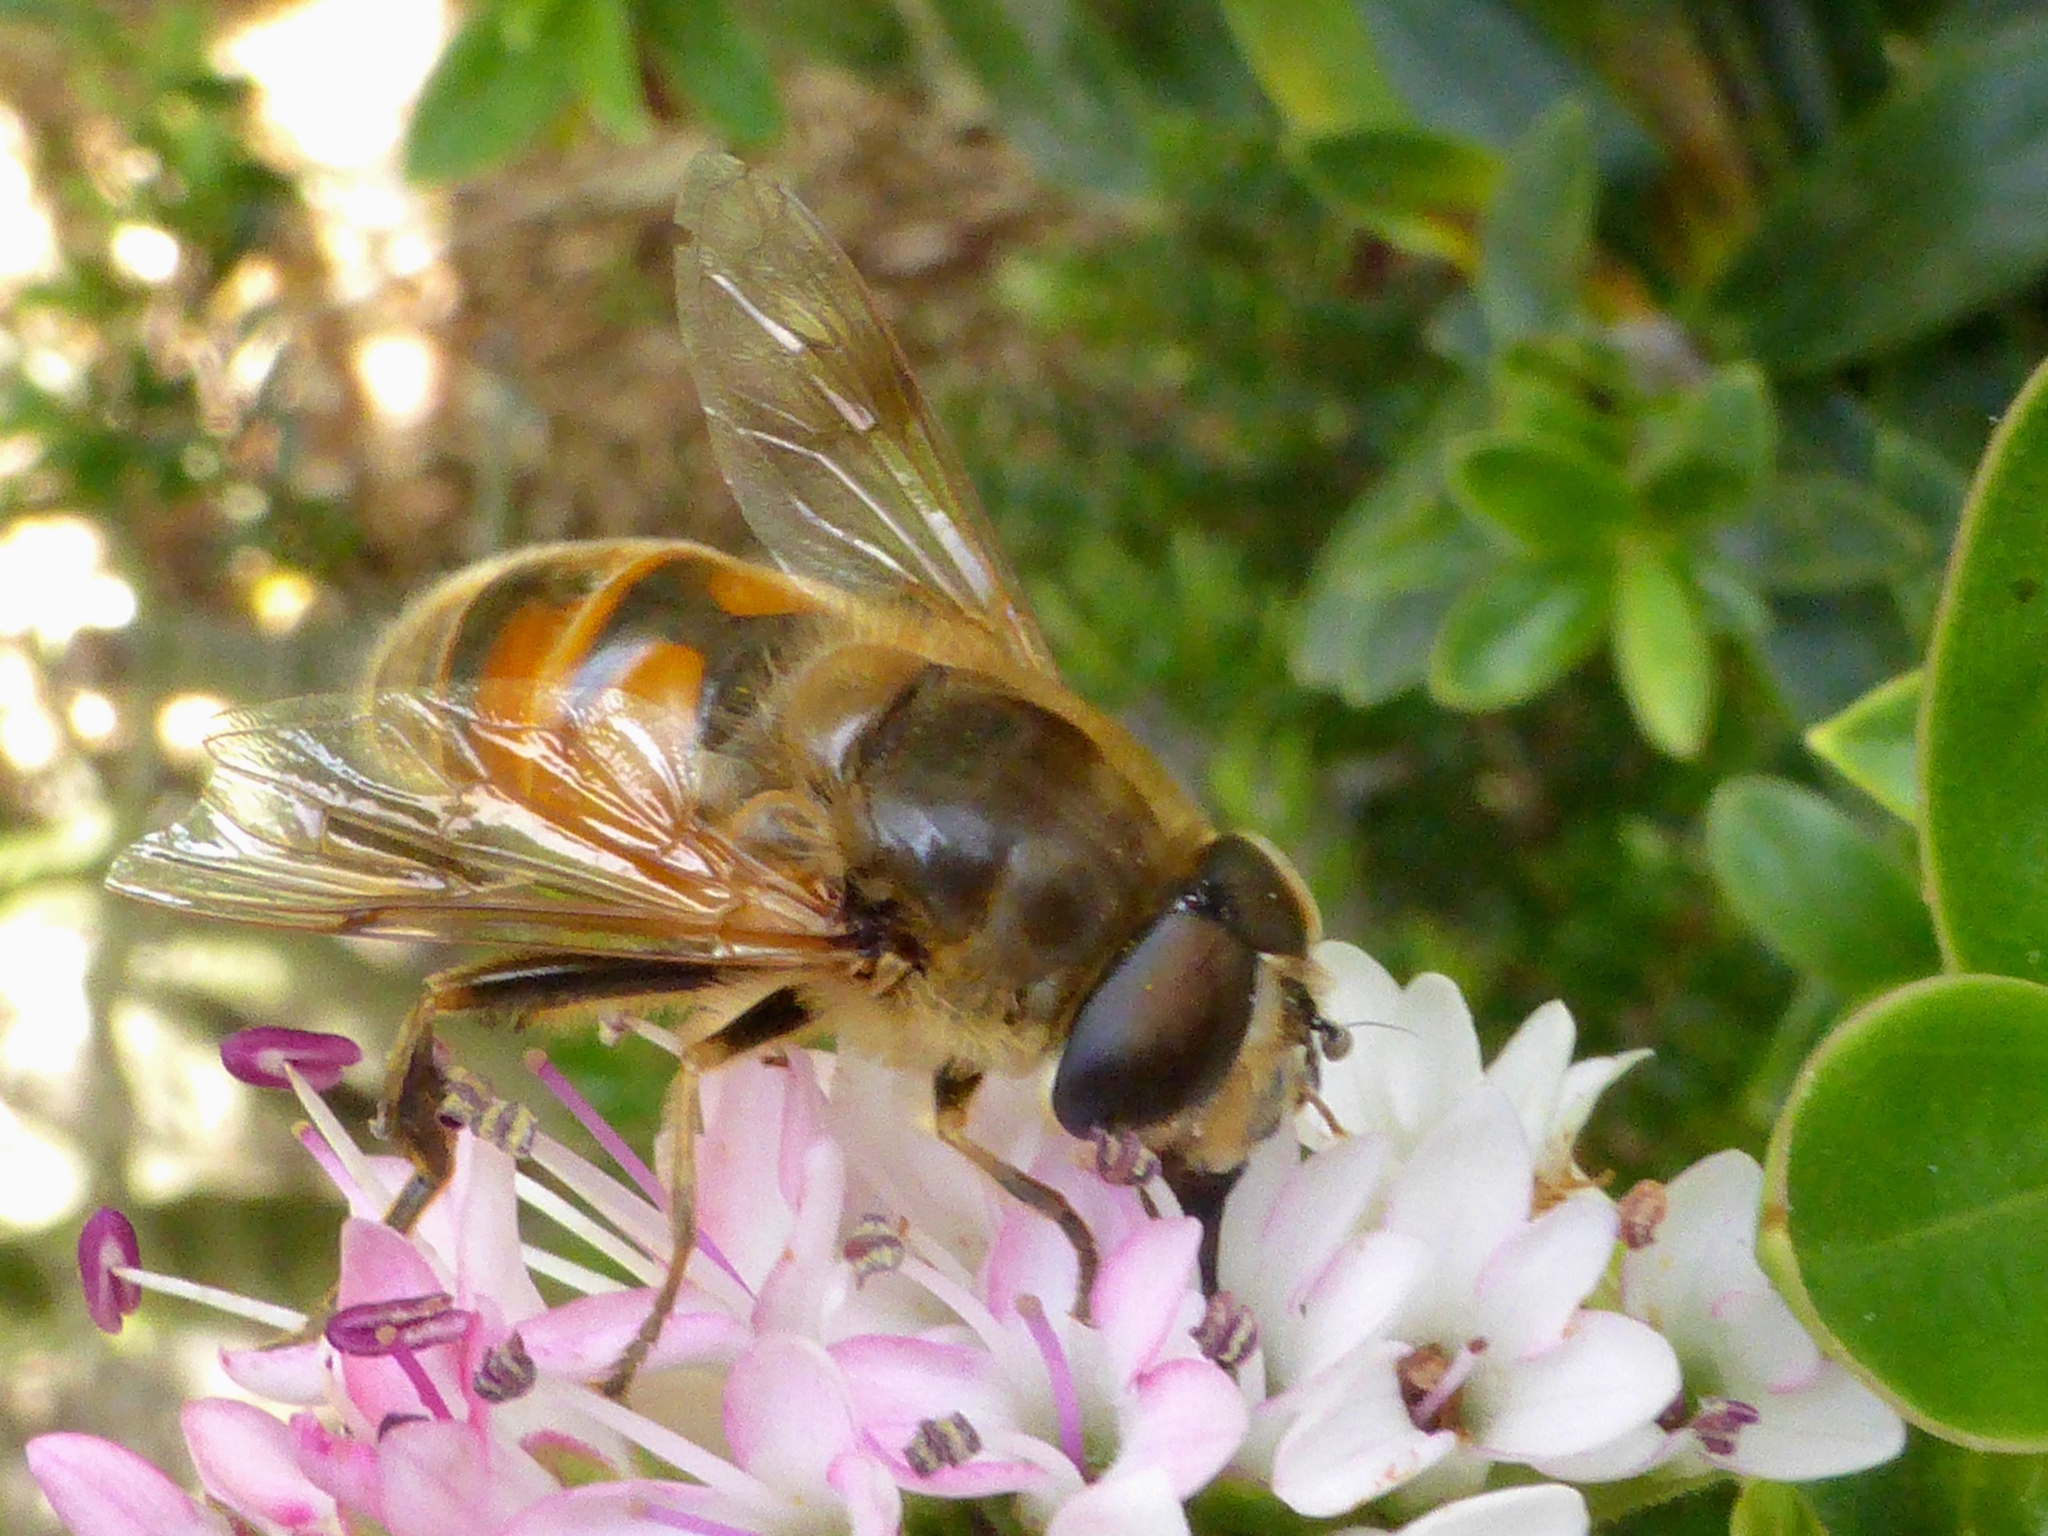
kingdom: Animalia
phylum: Arthropoda
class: Insecta
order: Diptera
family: Syrphidae
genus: Eristalis
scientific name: Eristalis tenax
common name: Drone fly
